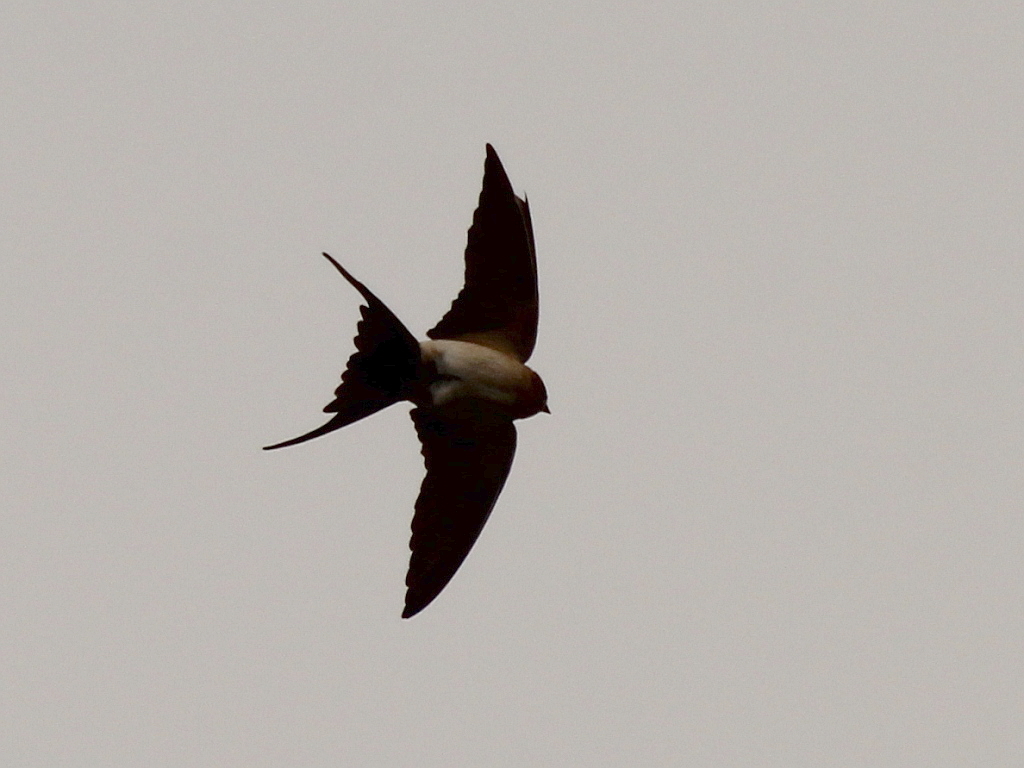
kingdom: Animalia
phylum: Chordata
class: Aves
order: Passeriformes
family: Hirundinidae
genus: Cecropis
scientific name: Cecropis daurica
